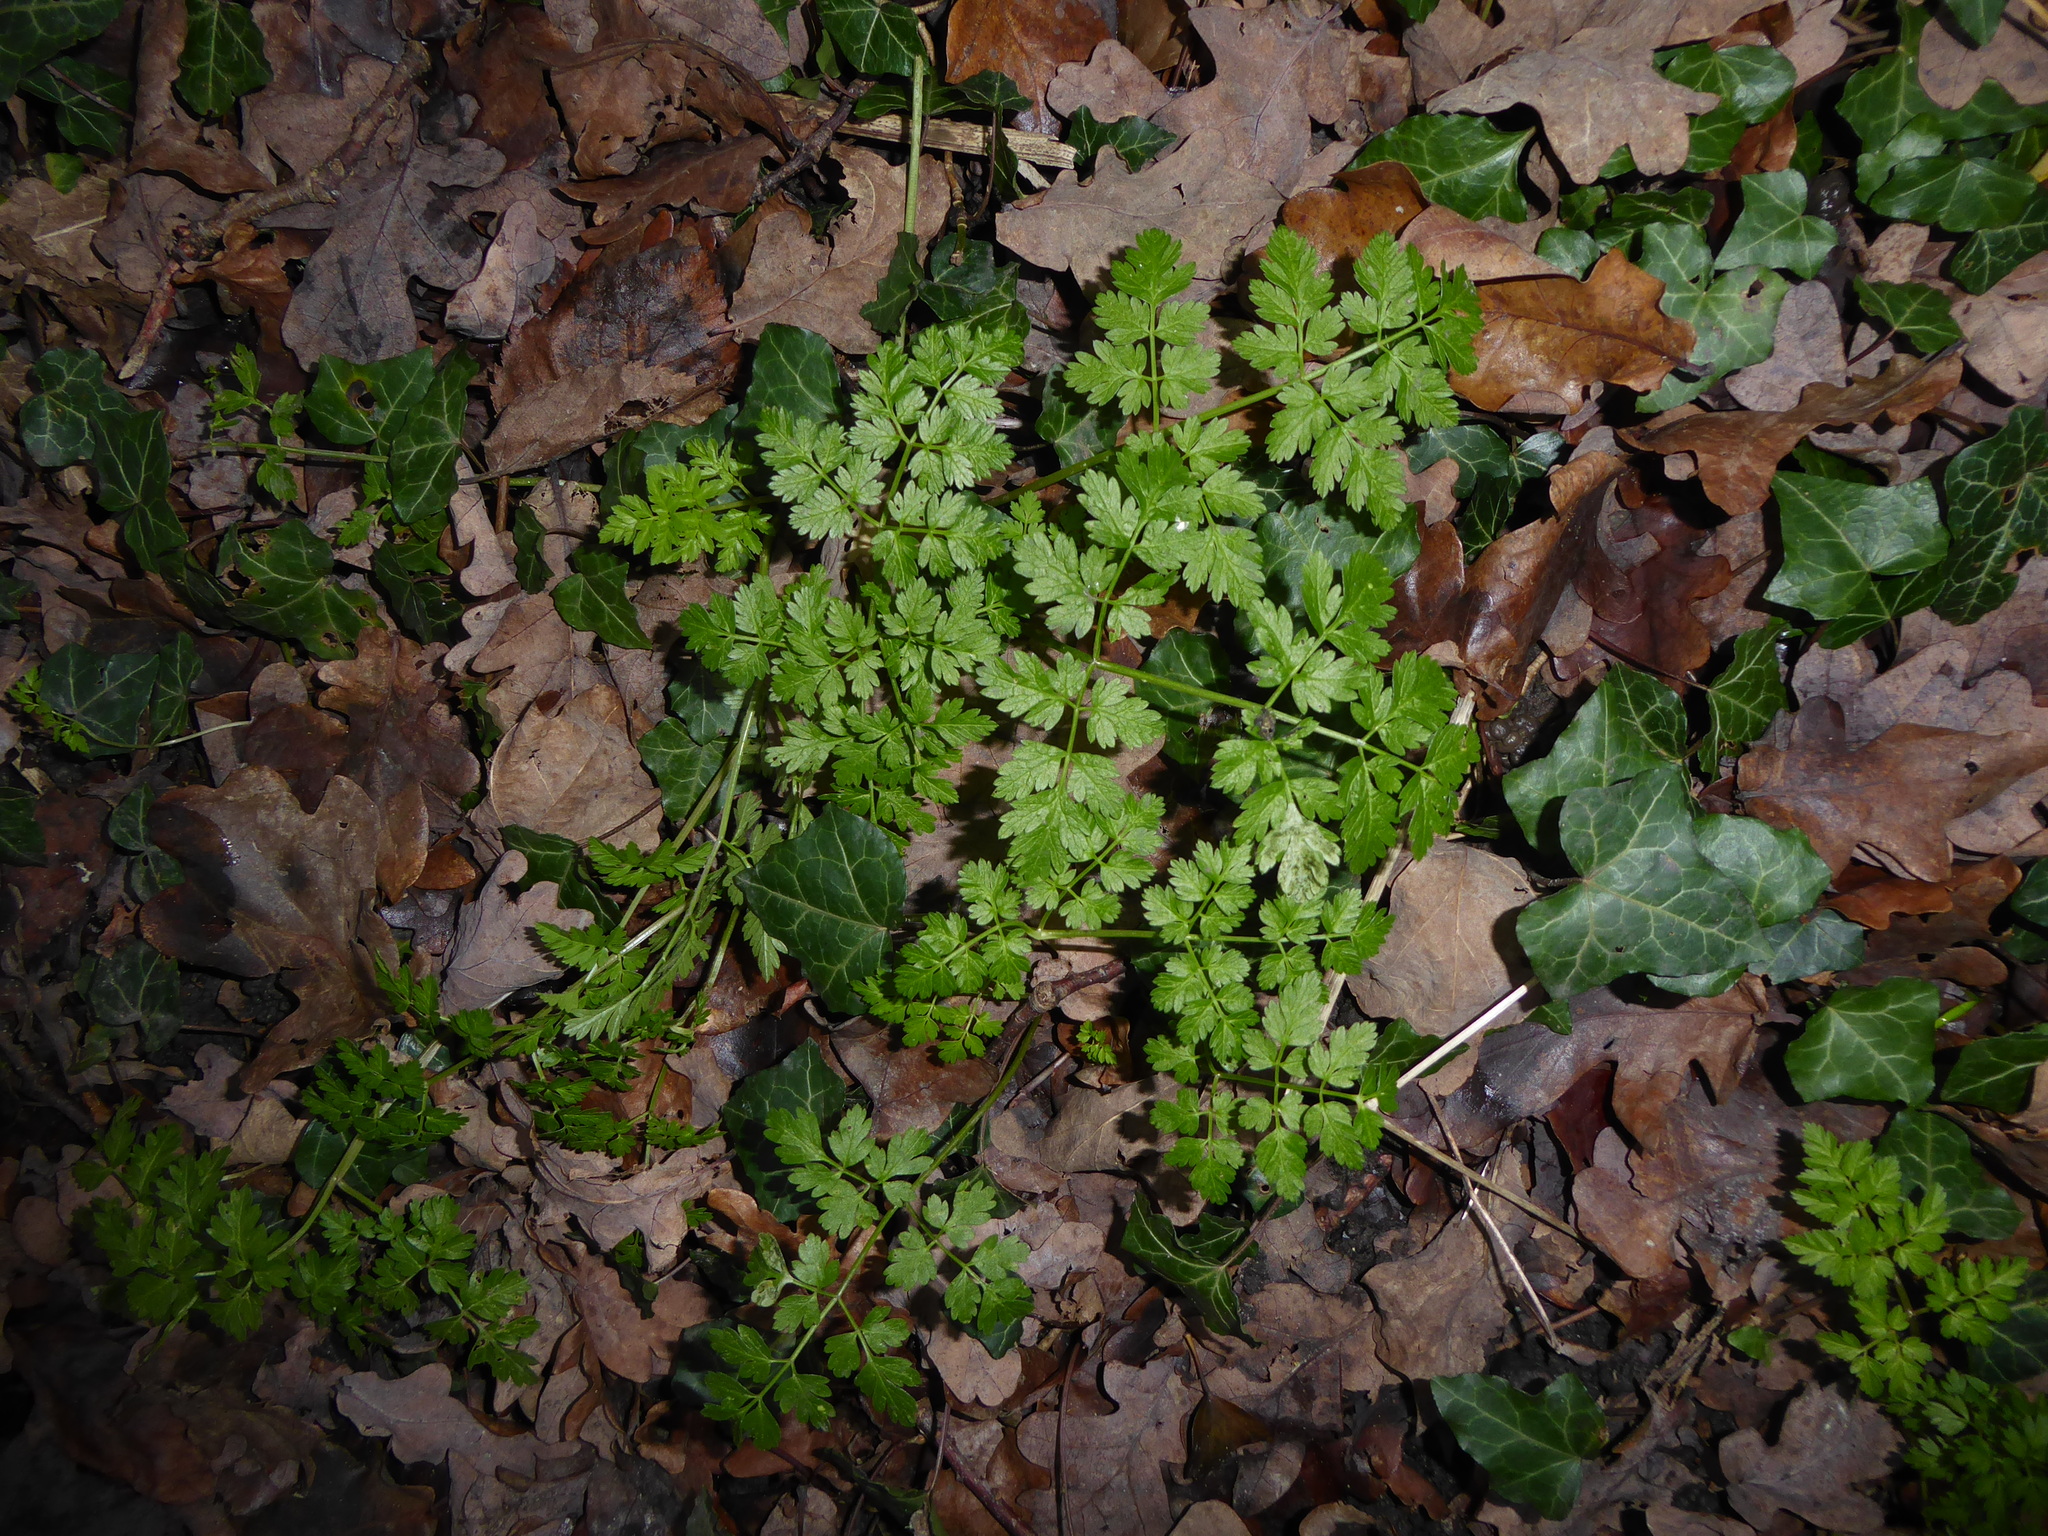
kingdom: Plantae
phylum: Tracheophyta
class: Magnoliopsida
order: Apiales
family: Apiaceae
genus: Anthriscus
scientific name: Anthriscus sylvestris
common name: Cow parsley
